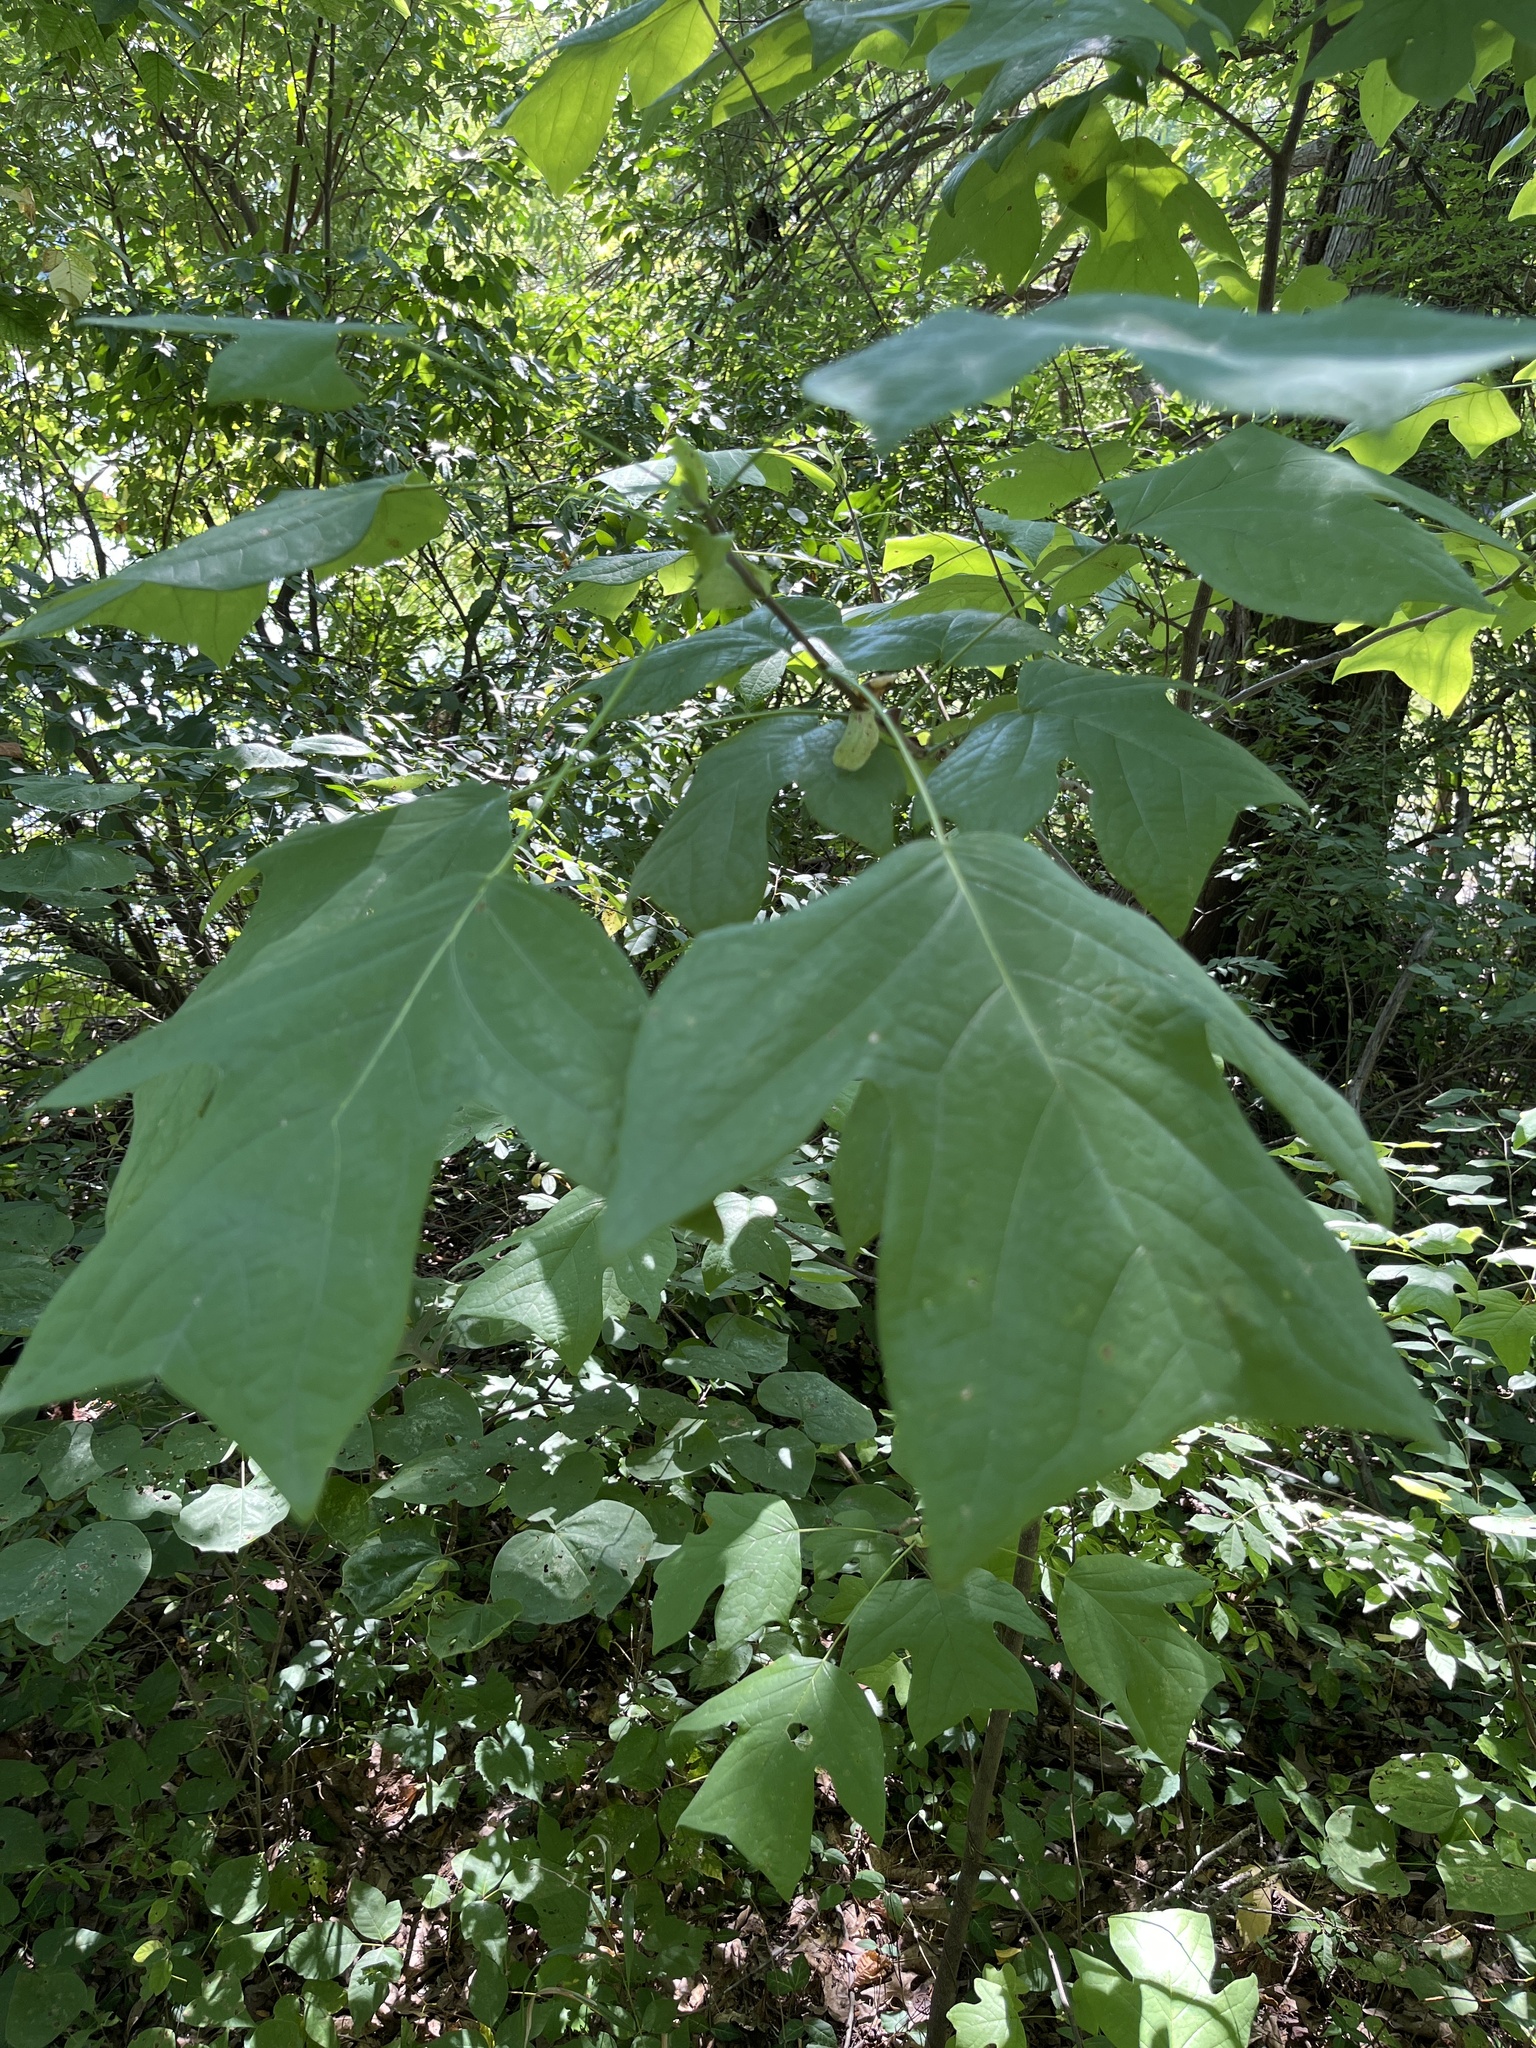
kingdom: Plantae
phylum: Tracheophyta
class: Magnoliopsida
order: Magnoliales
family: Magnoliaceae
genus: Liriodendron
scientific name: Liriodendron tulipifera
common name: Tulip tree
